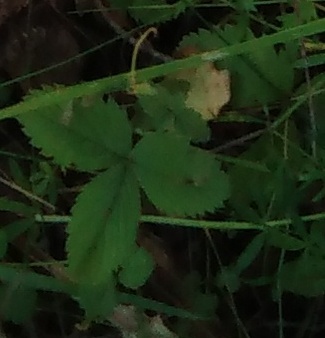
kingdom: Plantae
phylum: Tracheophyta
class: Magnoliopsida
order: Rosales
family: Rosaceae
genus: Fragaria
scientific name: Fragaria vesca
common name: Wild strawberry
